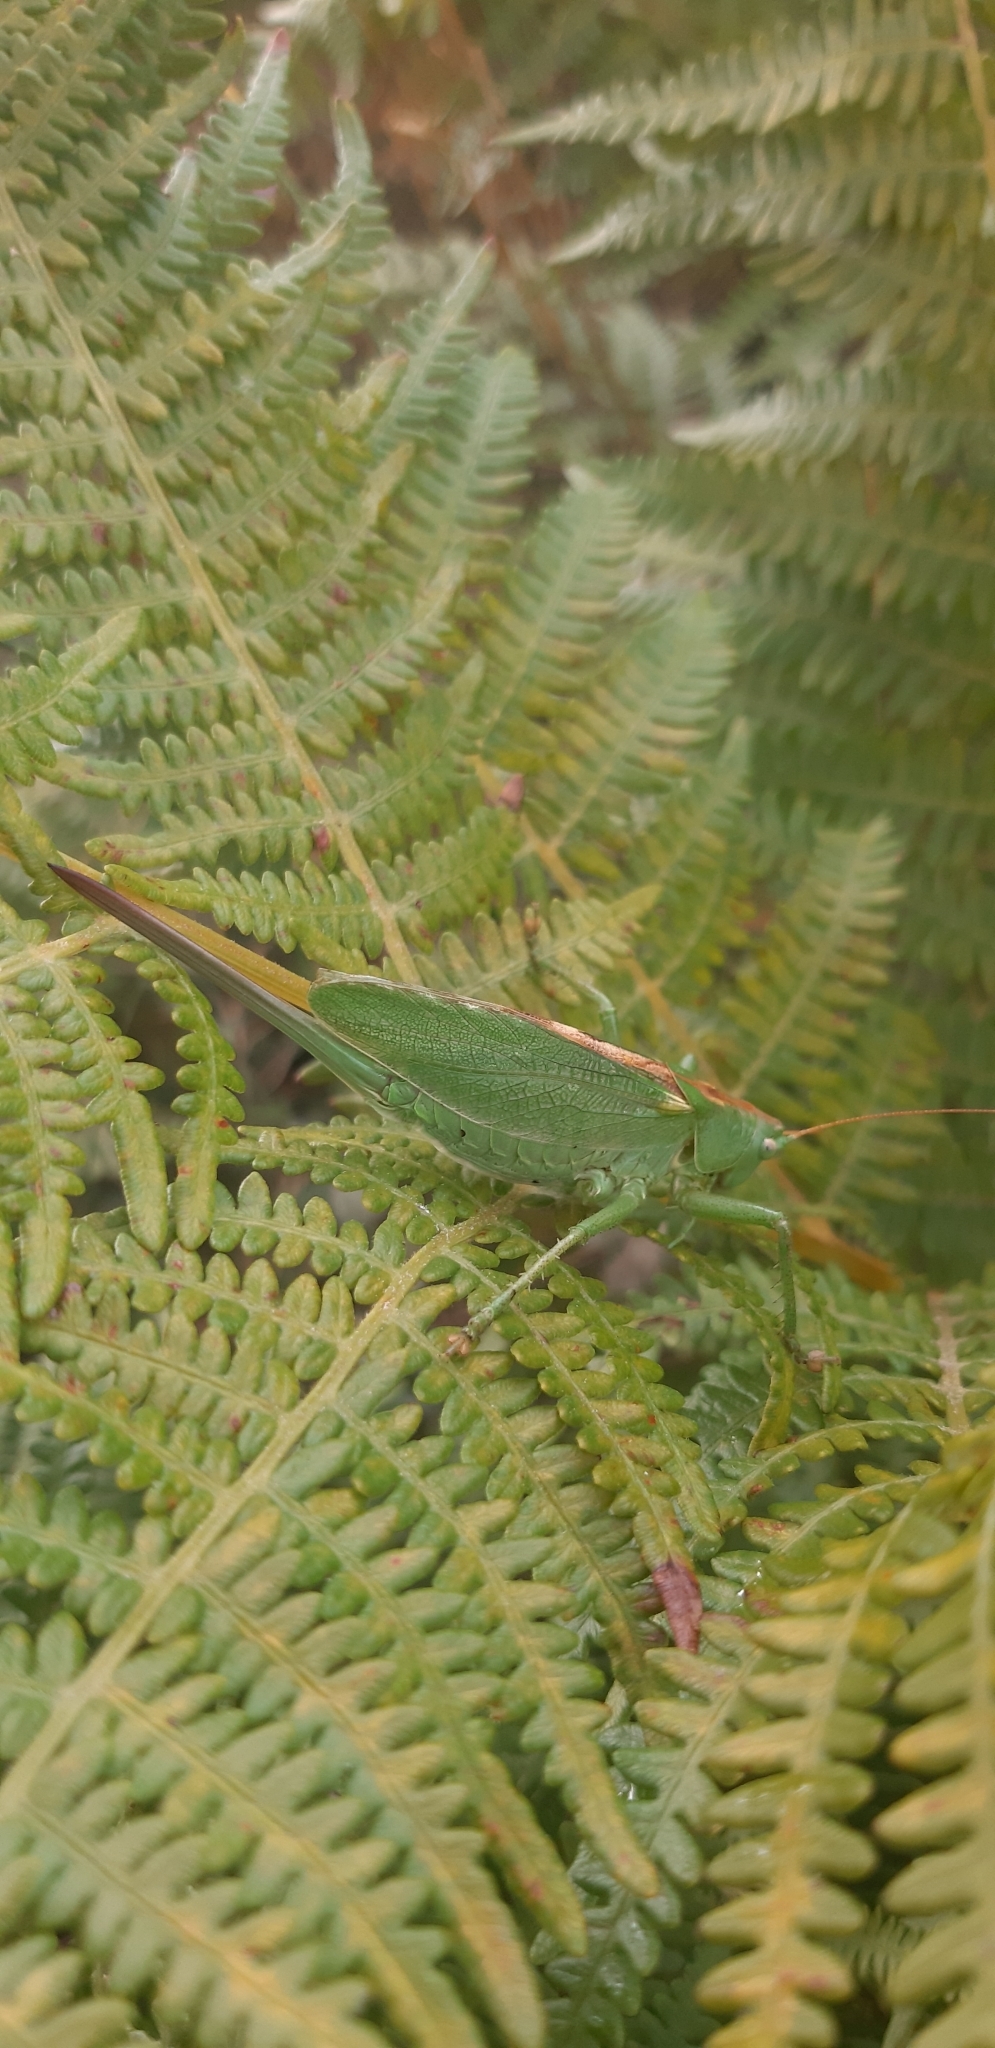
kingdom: Animalia
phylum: Arthropoda
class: Insecta
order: Orthoptera
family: Tettigoniidae
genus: Tettigonia
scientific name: Tettigonia silana
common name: Calabrian green bush-cricket
